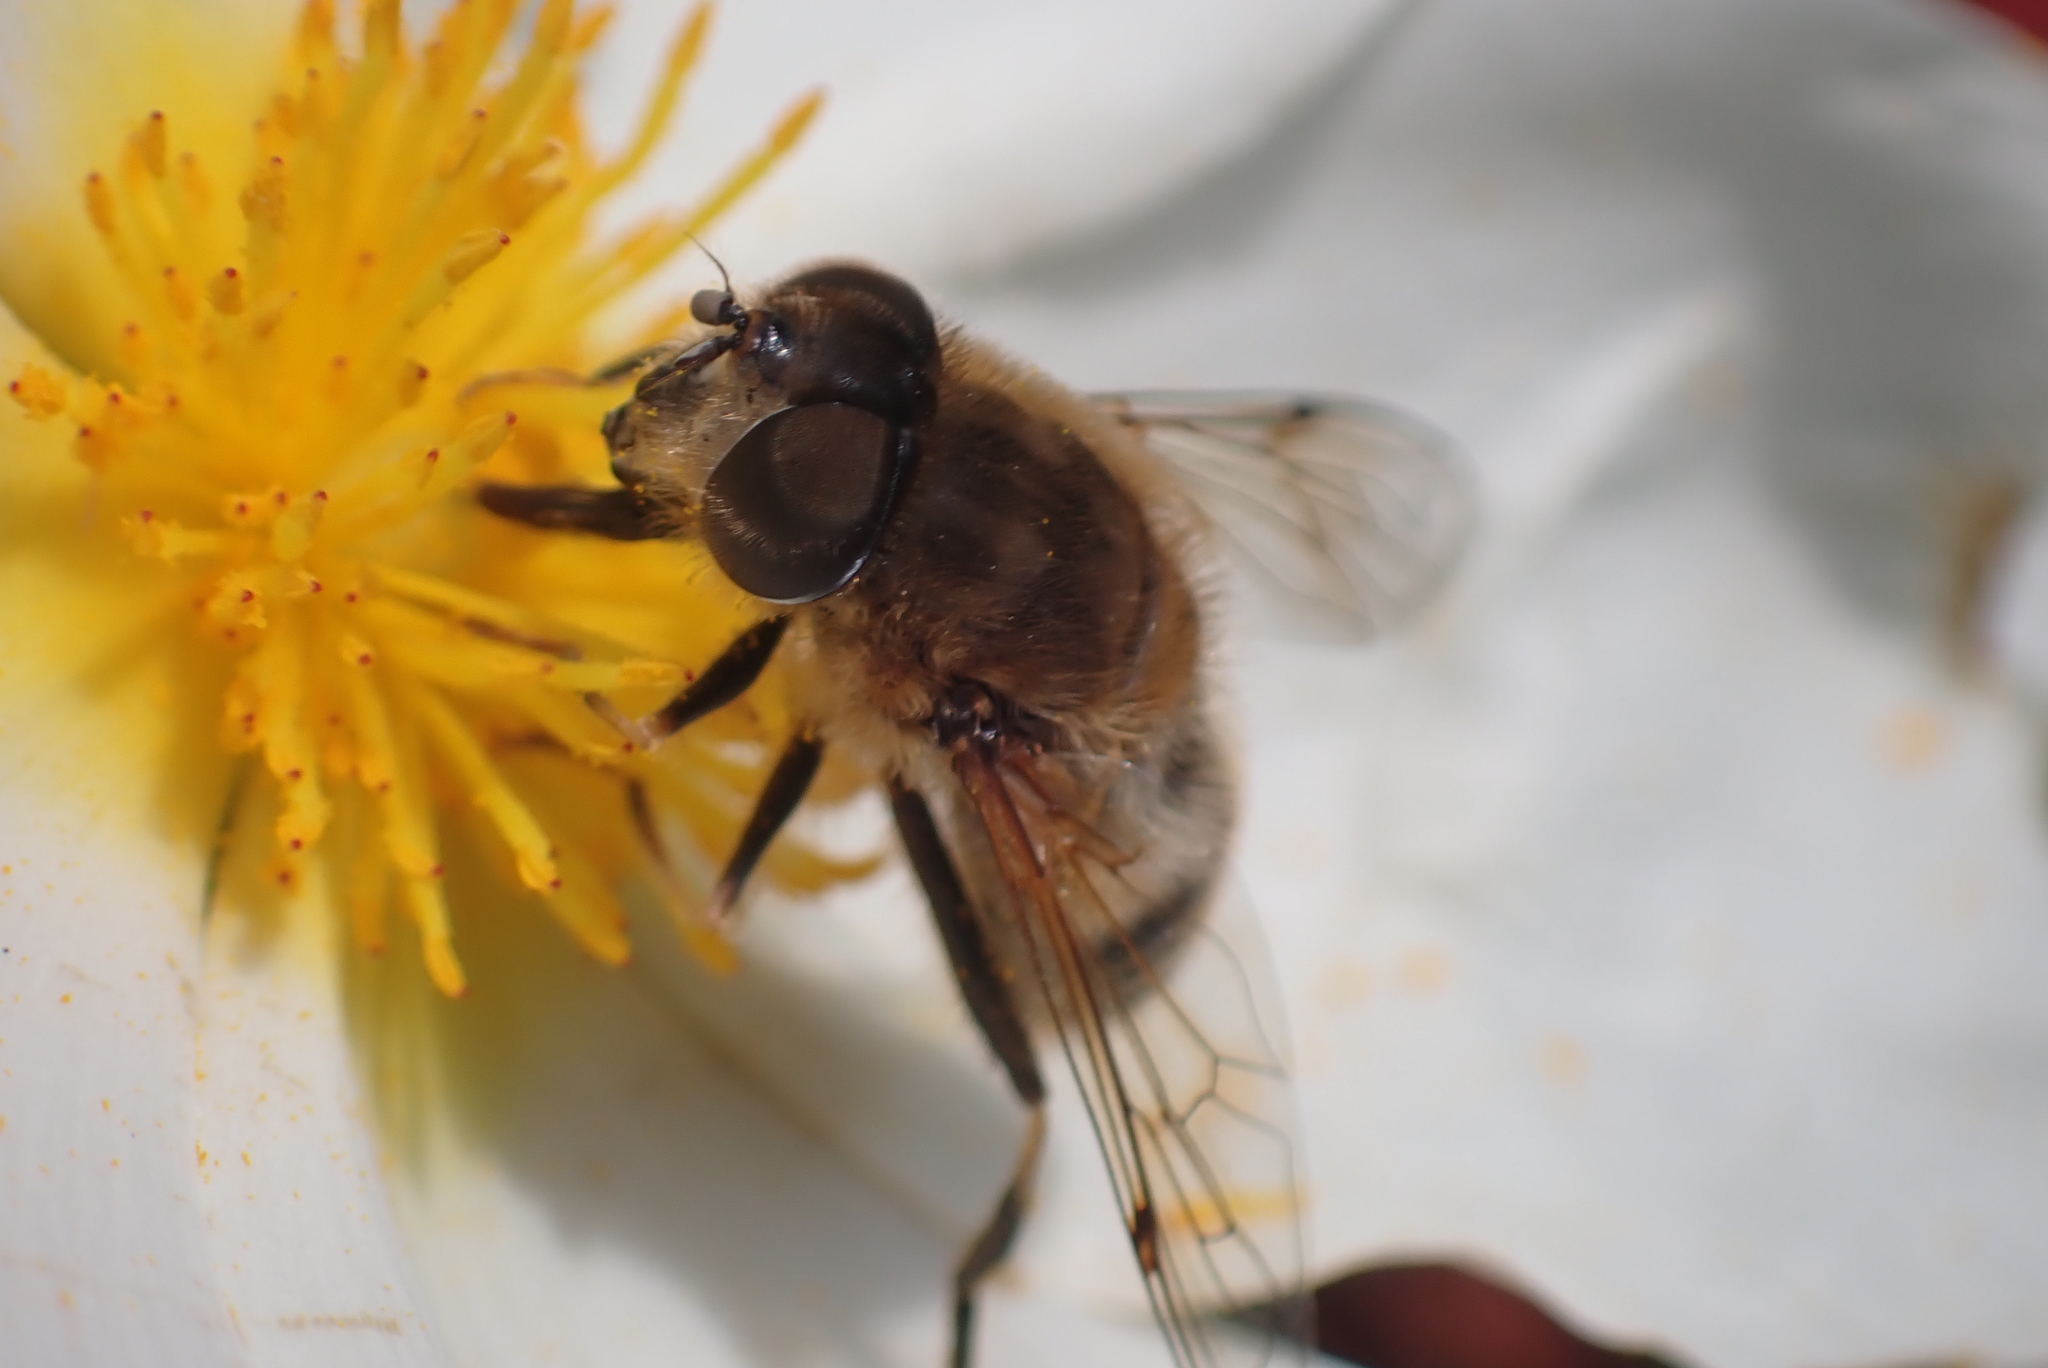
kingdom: Animalia
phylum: Arthropoda
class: Insecta
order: Diptera
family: Syrphidae
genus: Eristalis
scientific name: Eristalis pertinax
